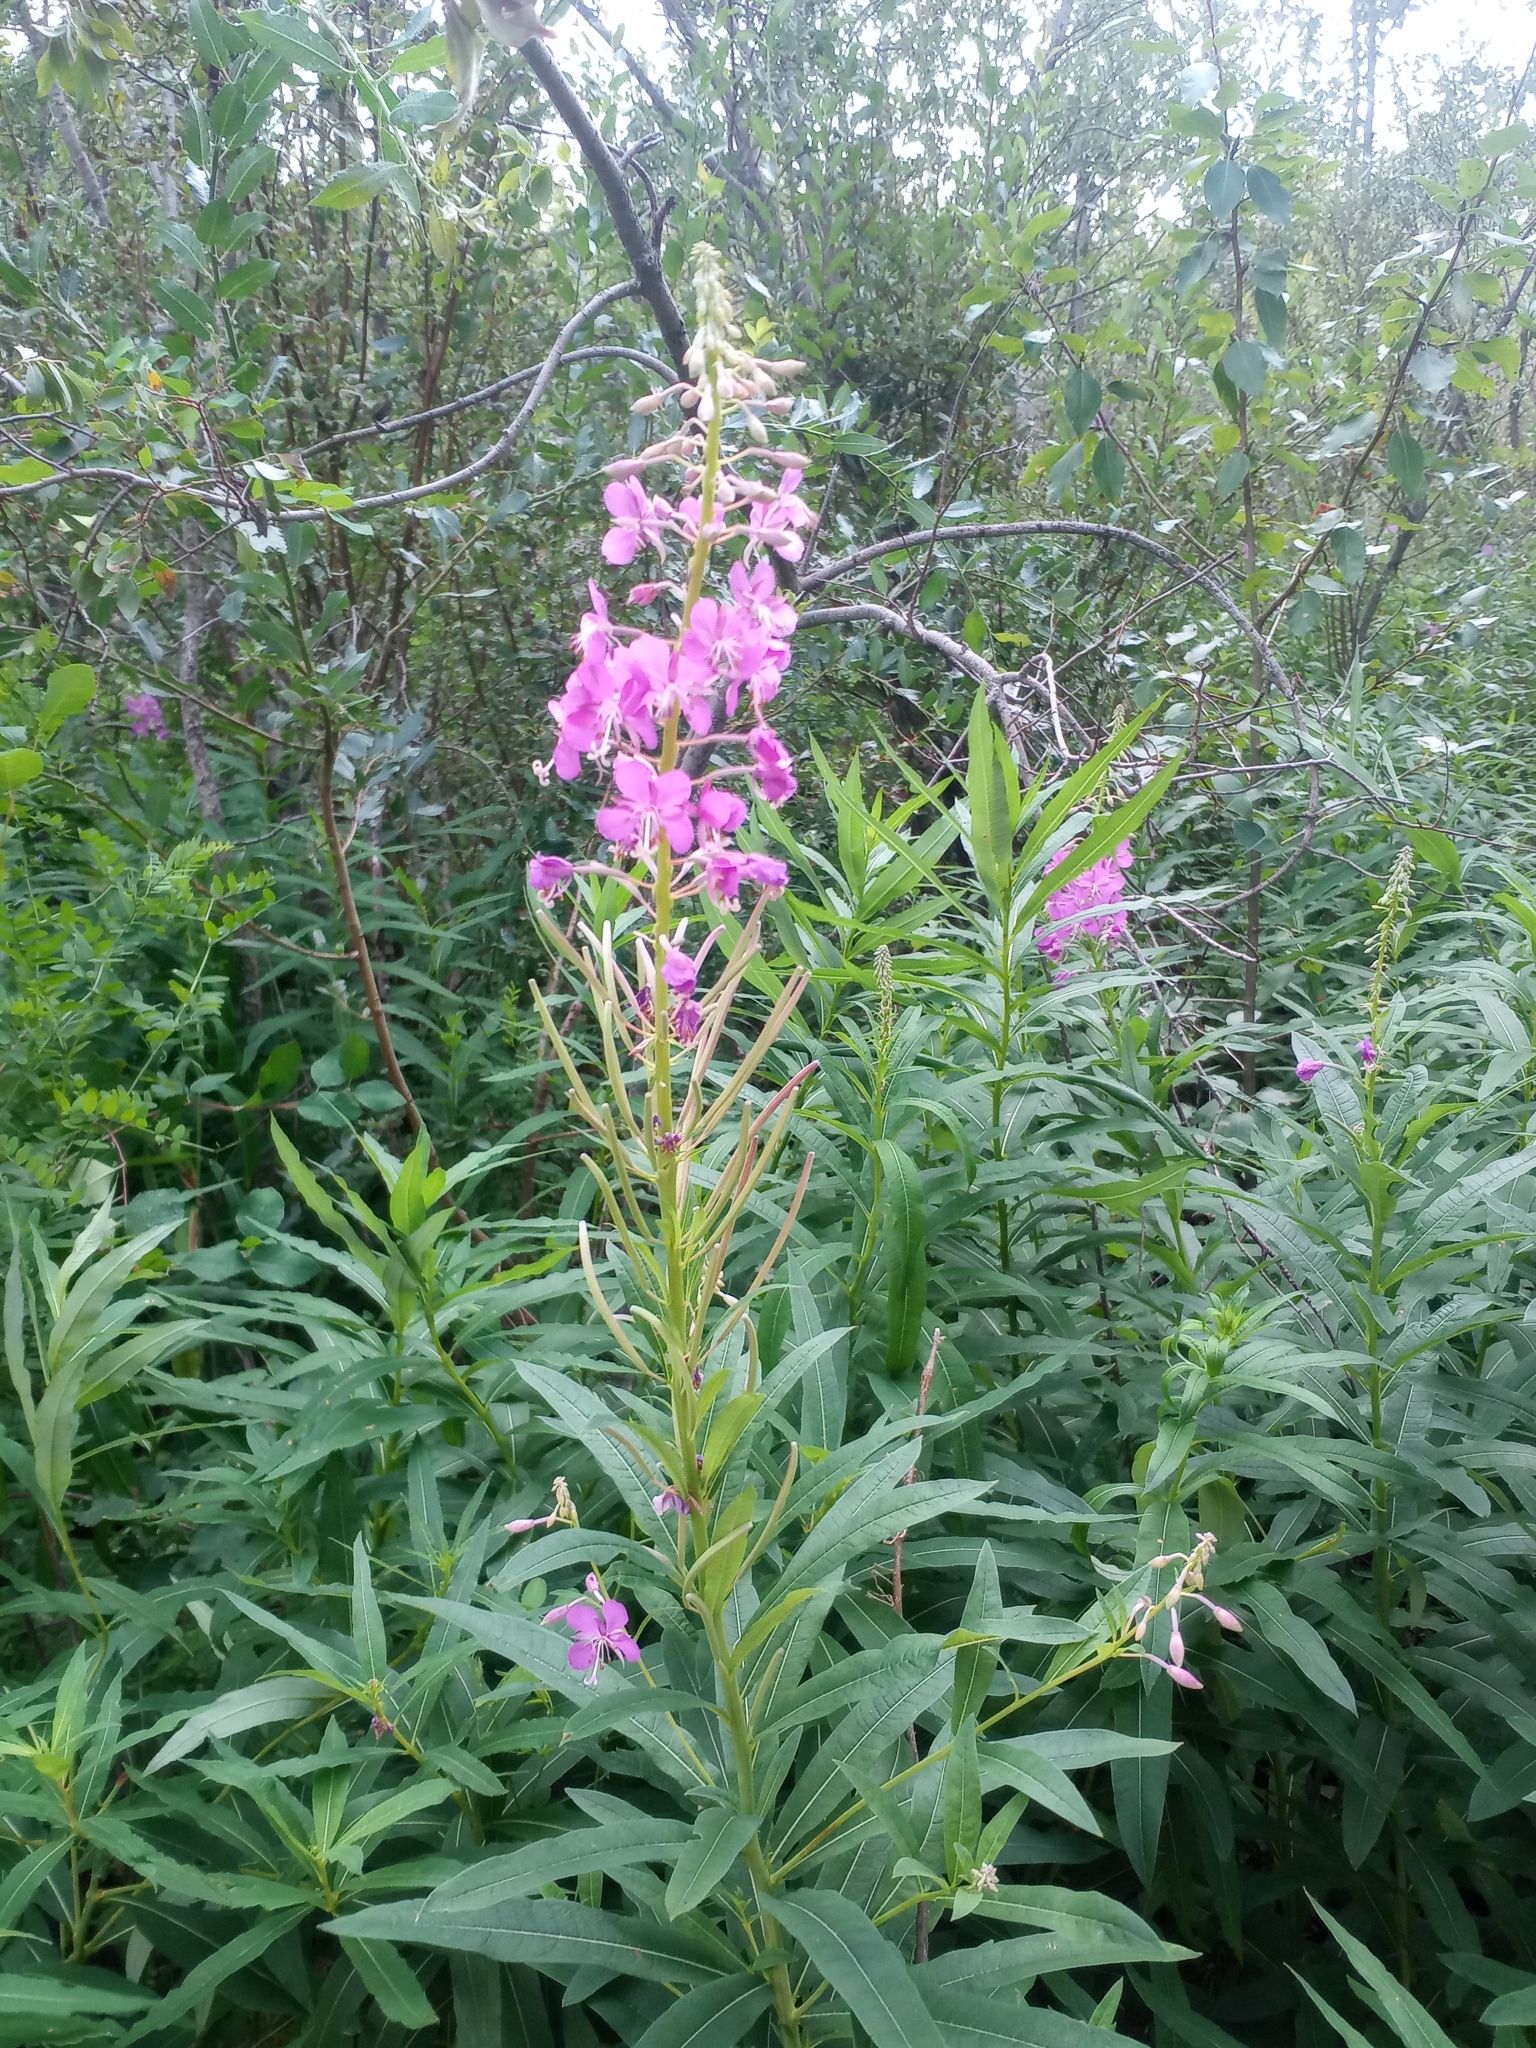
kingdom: Plantae
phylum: Tracheophyta
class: Magnoliopsida
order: Myrtales
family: Onagraceae
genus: Chamaenerion
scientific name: Chamaenerion angustifolium
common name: Fireweed
